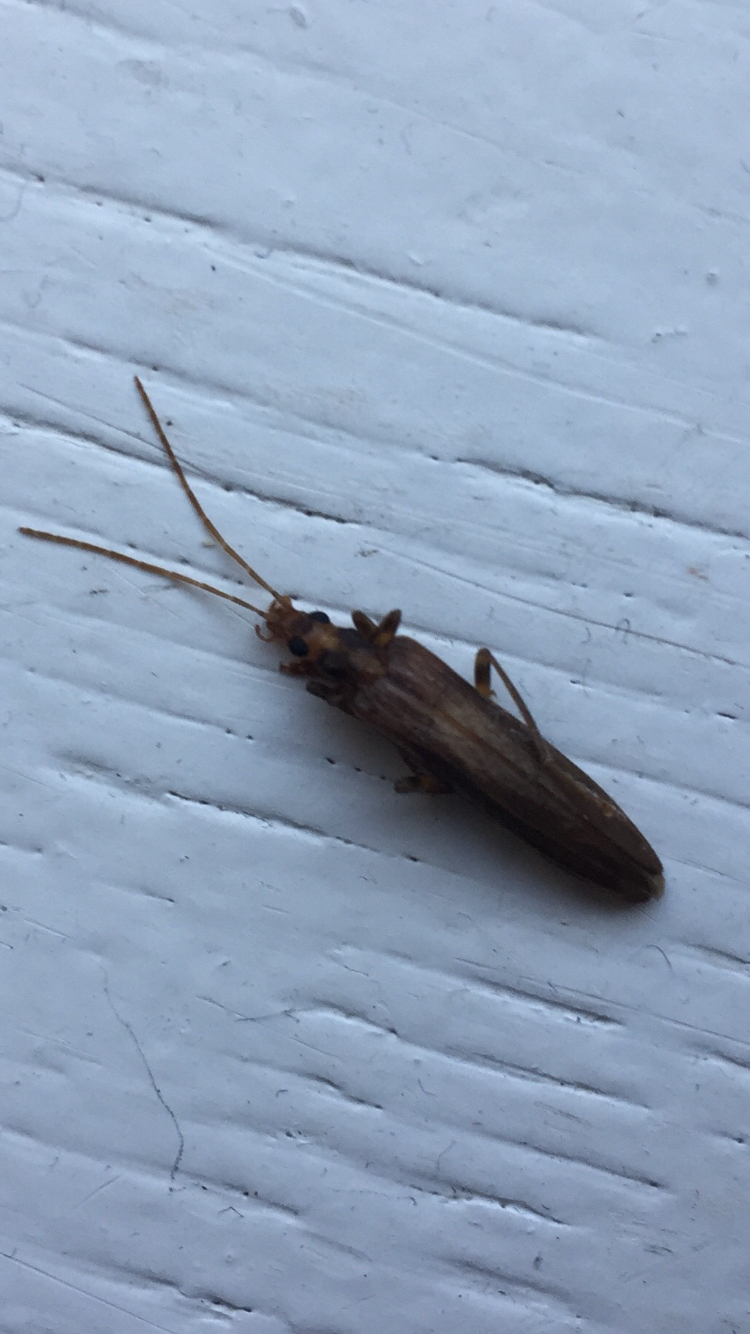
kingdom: Animalia
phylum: Arthropoda
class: Insecta
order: Coleoptera
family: Oedemeridae
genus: Oedemera
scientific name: Oedemera femoralis
